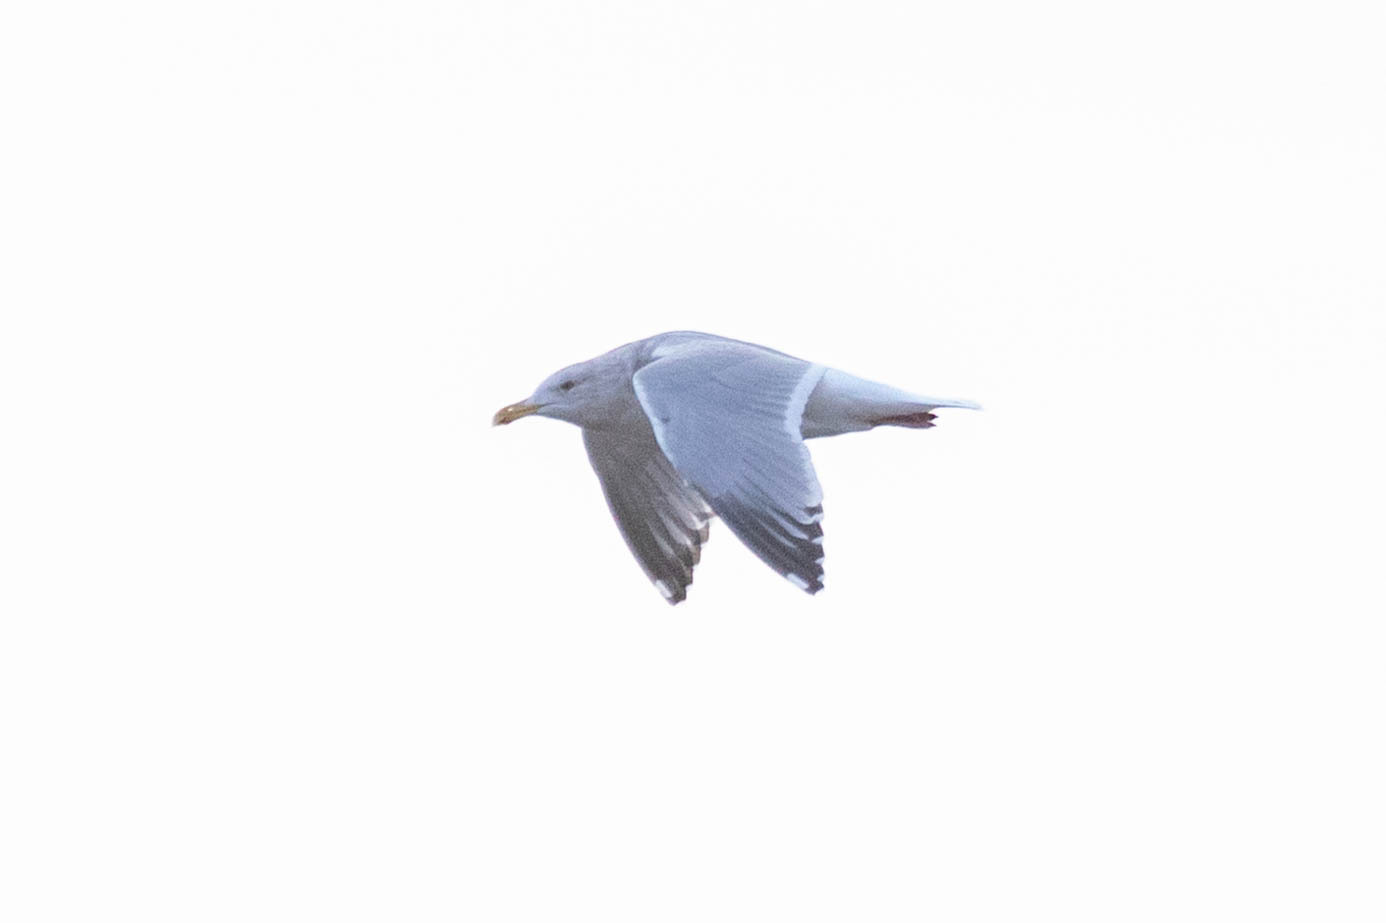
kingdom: Animalia
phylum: Chordata
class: Aves
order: Charadriiformes
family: Laridae
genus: Larus
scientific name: Larus argentatus
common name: Herring gull
